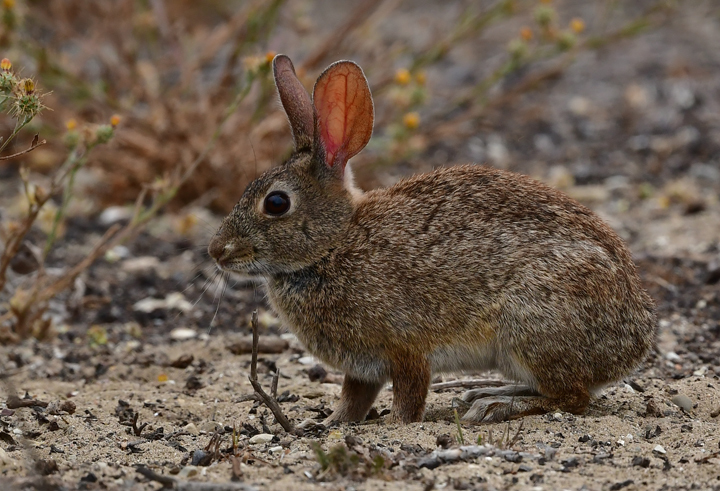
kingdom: Animalia
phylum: Chordata
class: Mammalia
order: Lagomorpha
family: Leporidae
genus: Sylvilagus
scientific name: Sylvilagus bachmani
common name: Brush rabbit
